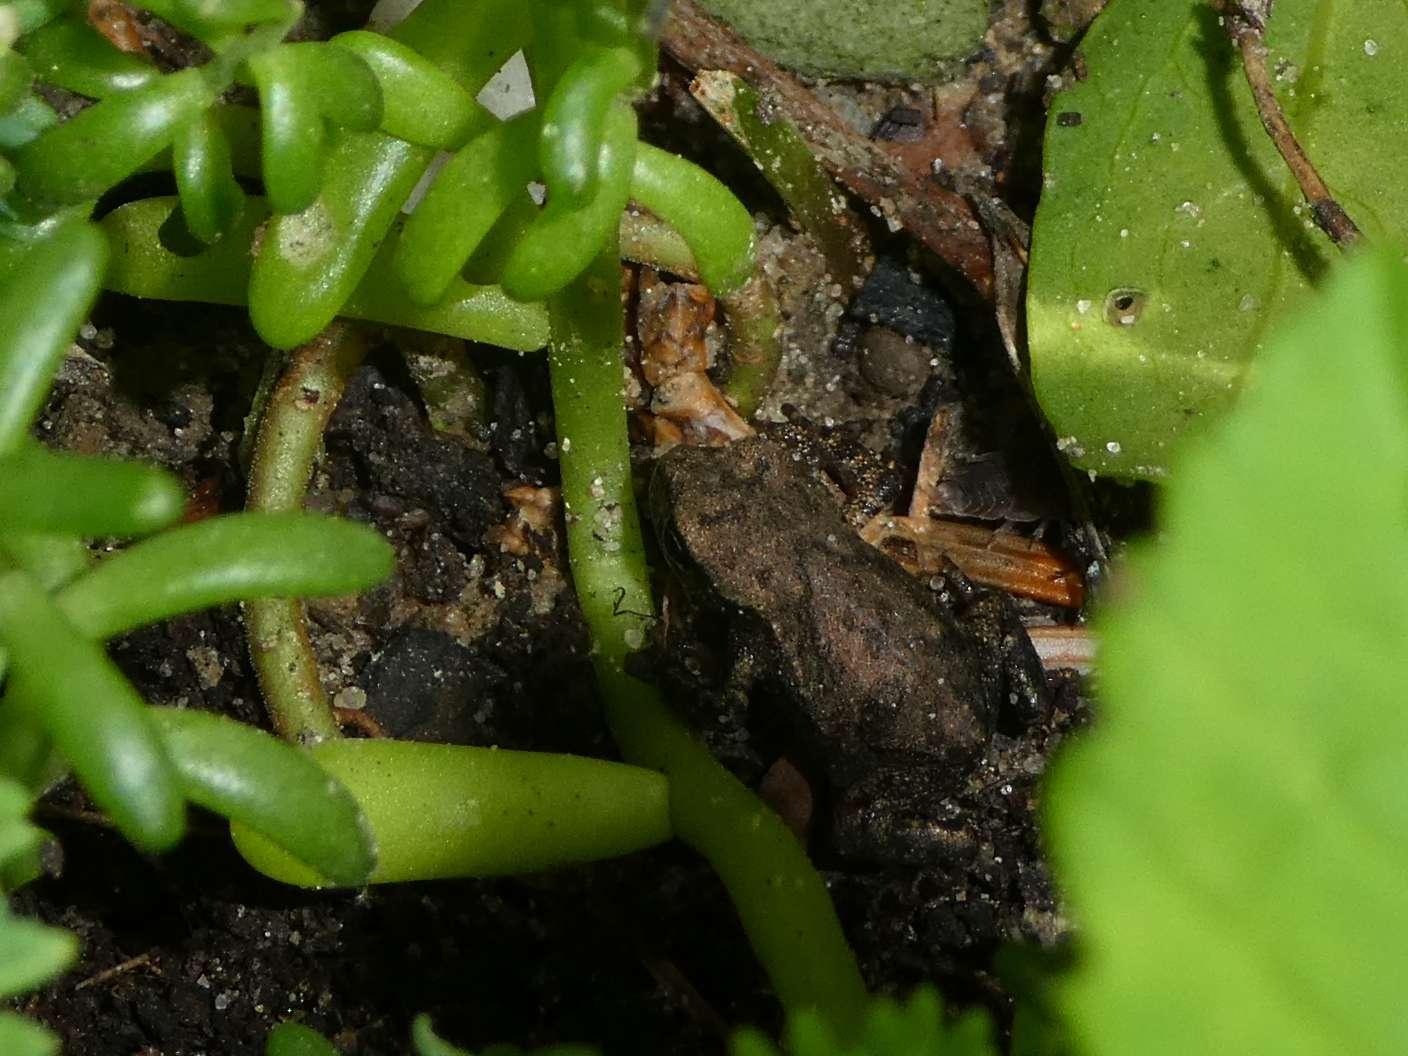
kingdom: Animalia
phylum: Chordata
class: Amphibia
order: Anura
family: Bufonidae
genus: Bufo
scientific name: Bufo bufo
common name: Common toad
